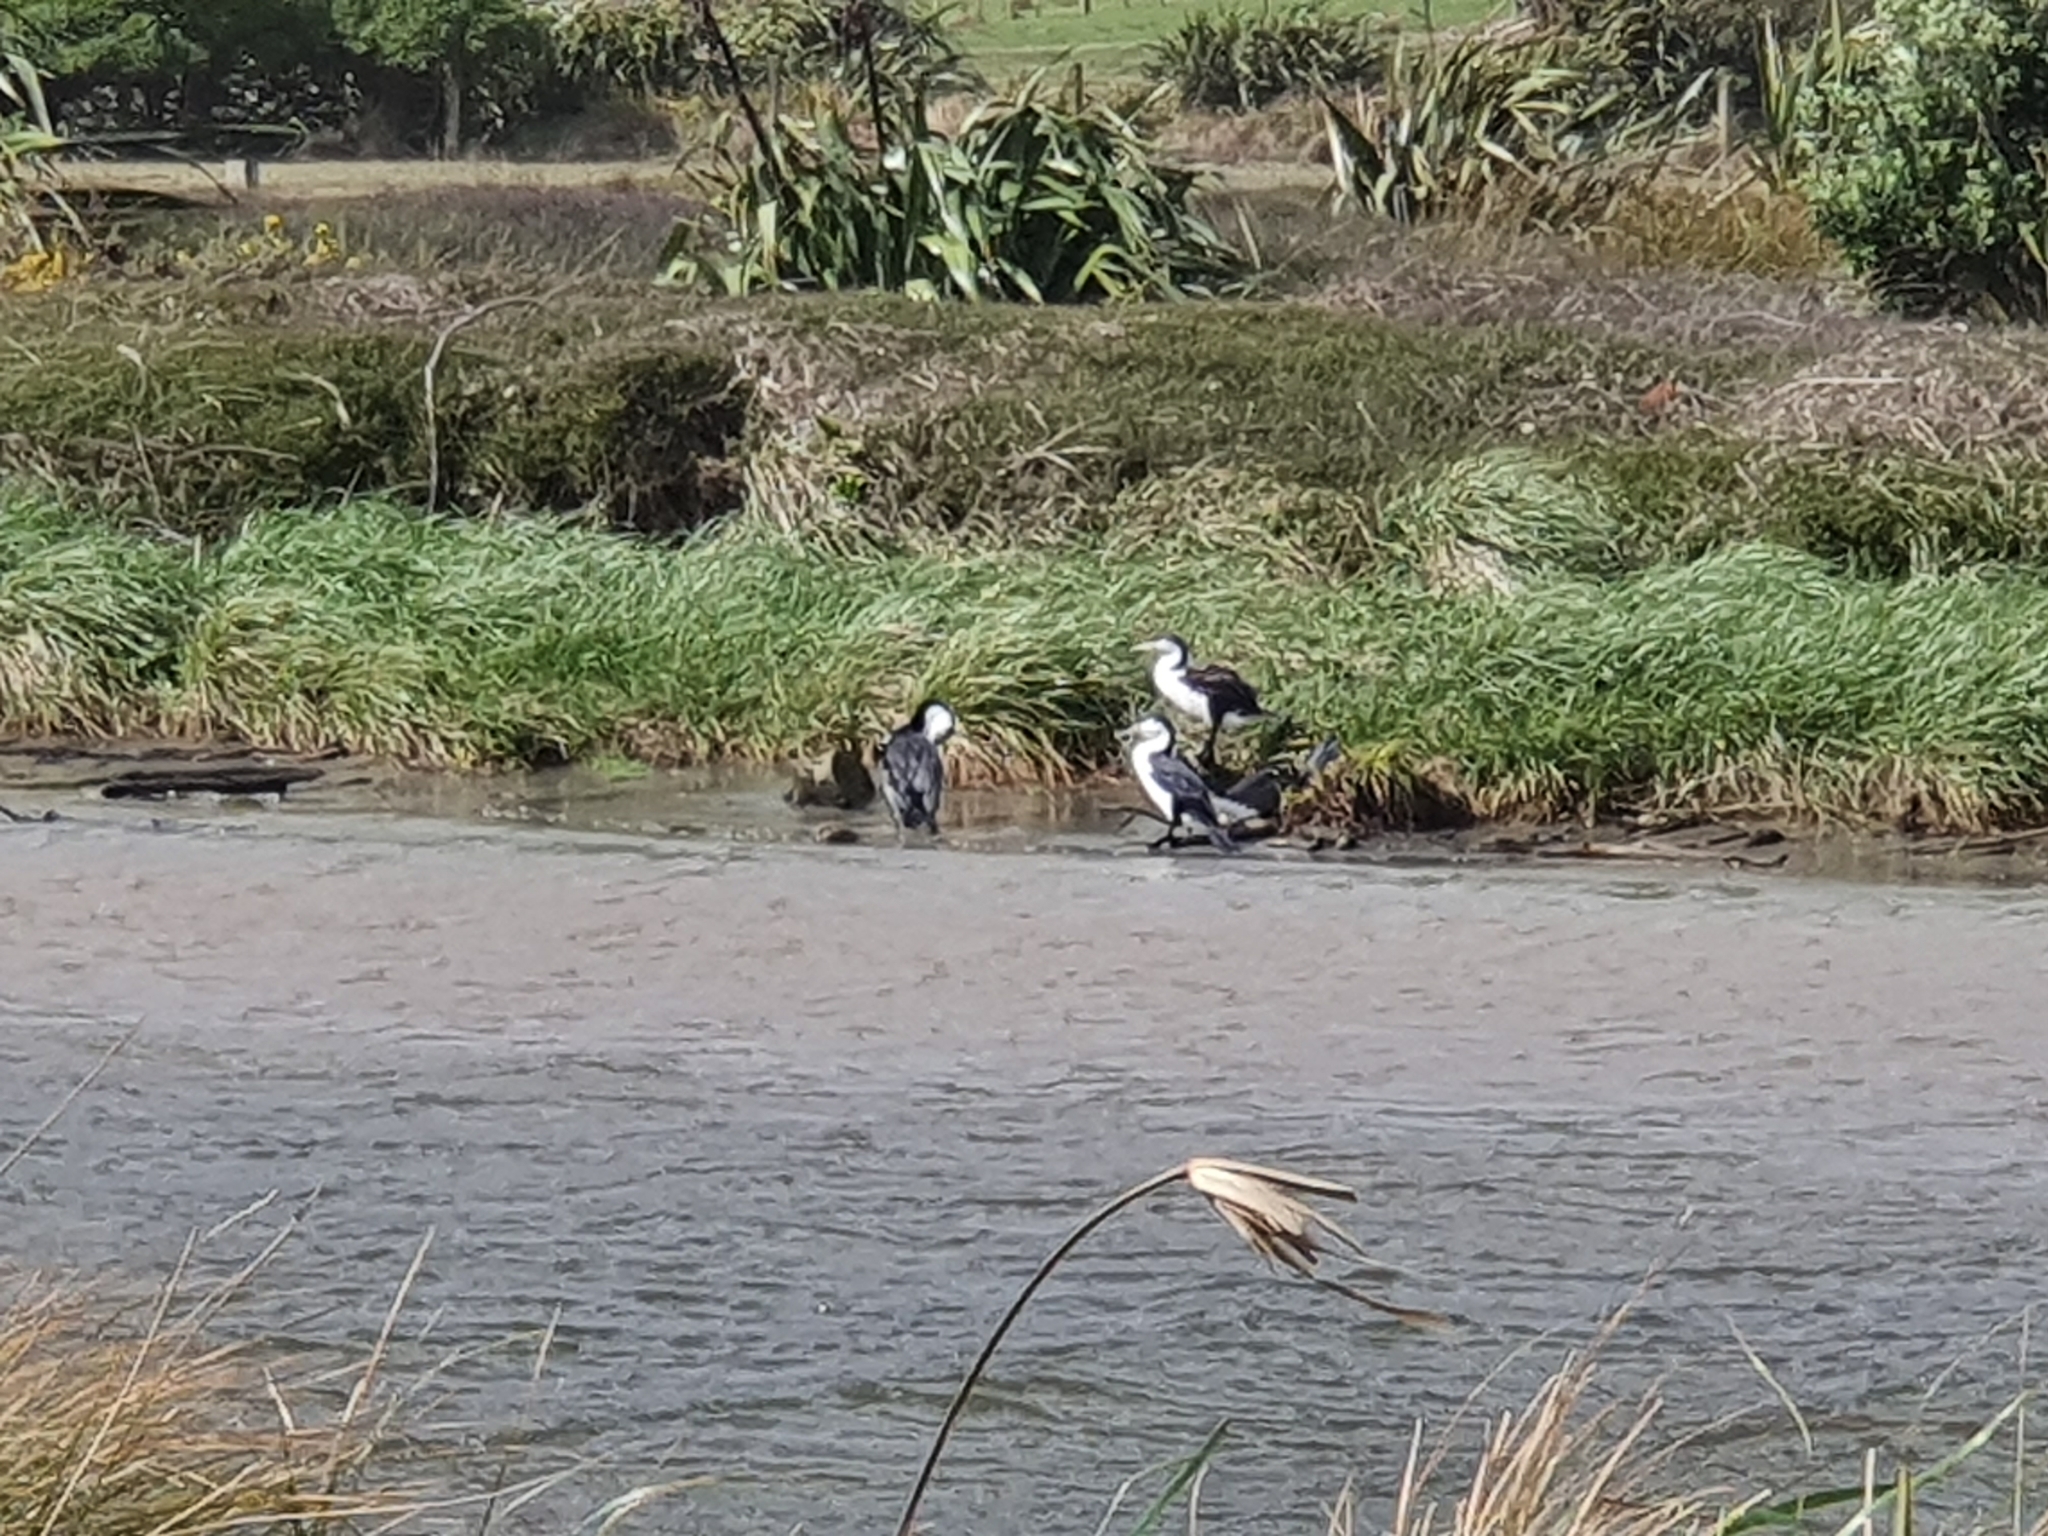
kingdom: Animalia
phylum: Chordata
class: Aves
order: Suliformes
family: Phalacrocoracidae
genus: Phalacrocorax
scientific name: Phalacrocorax varius
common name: Pied cormorant
